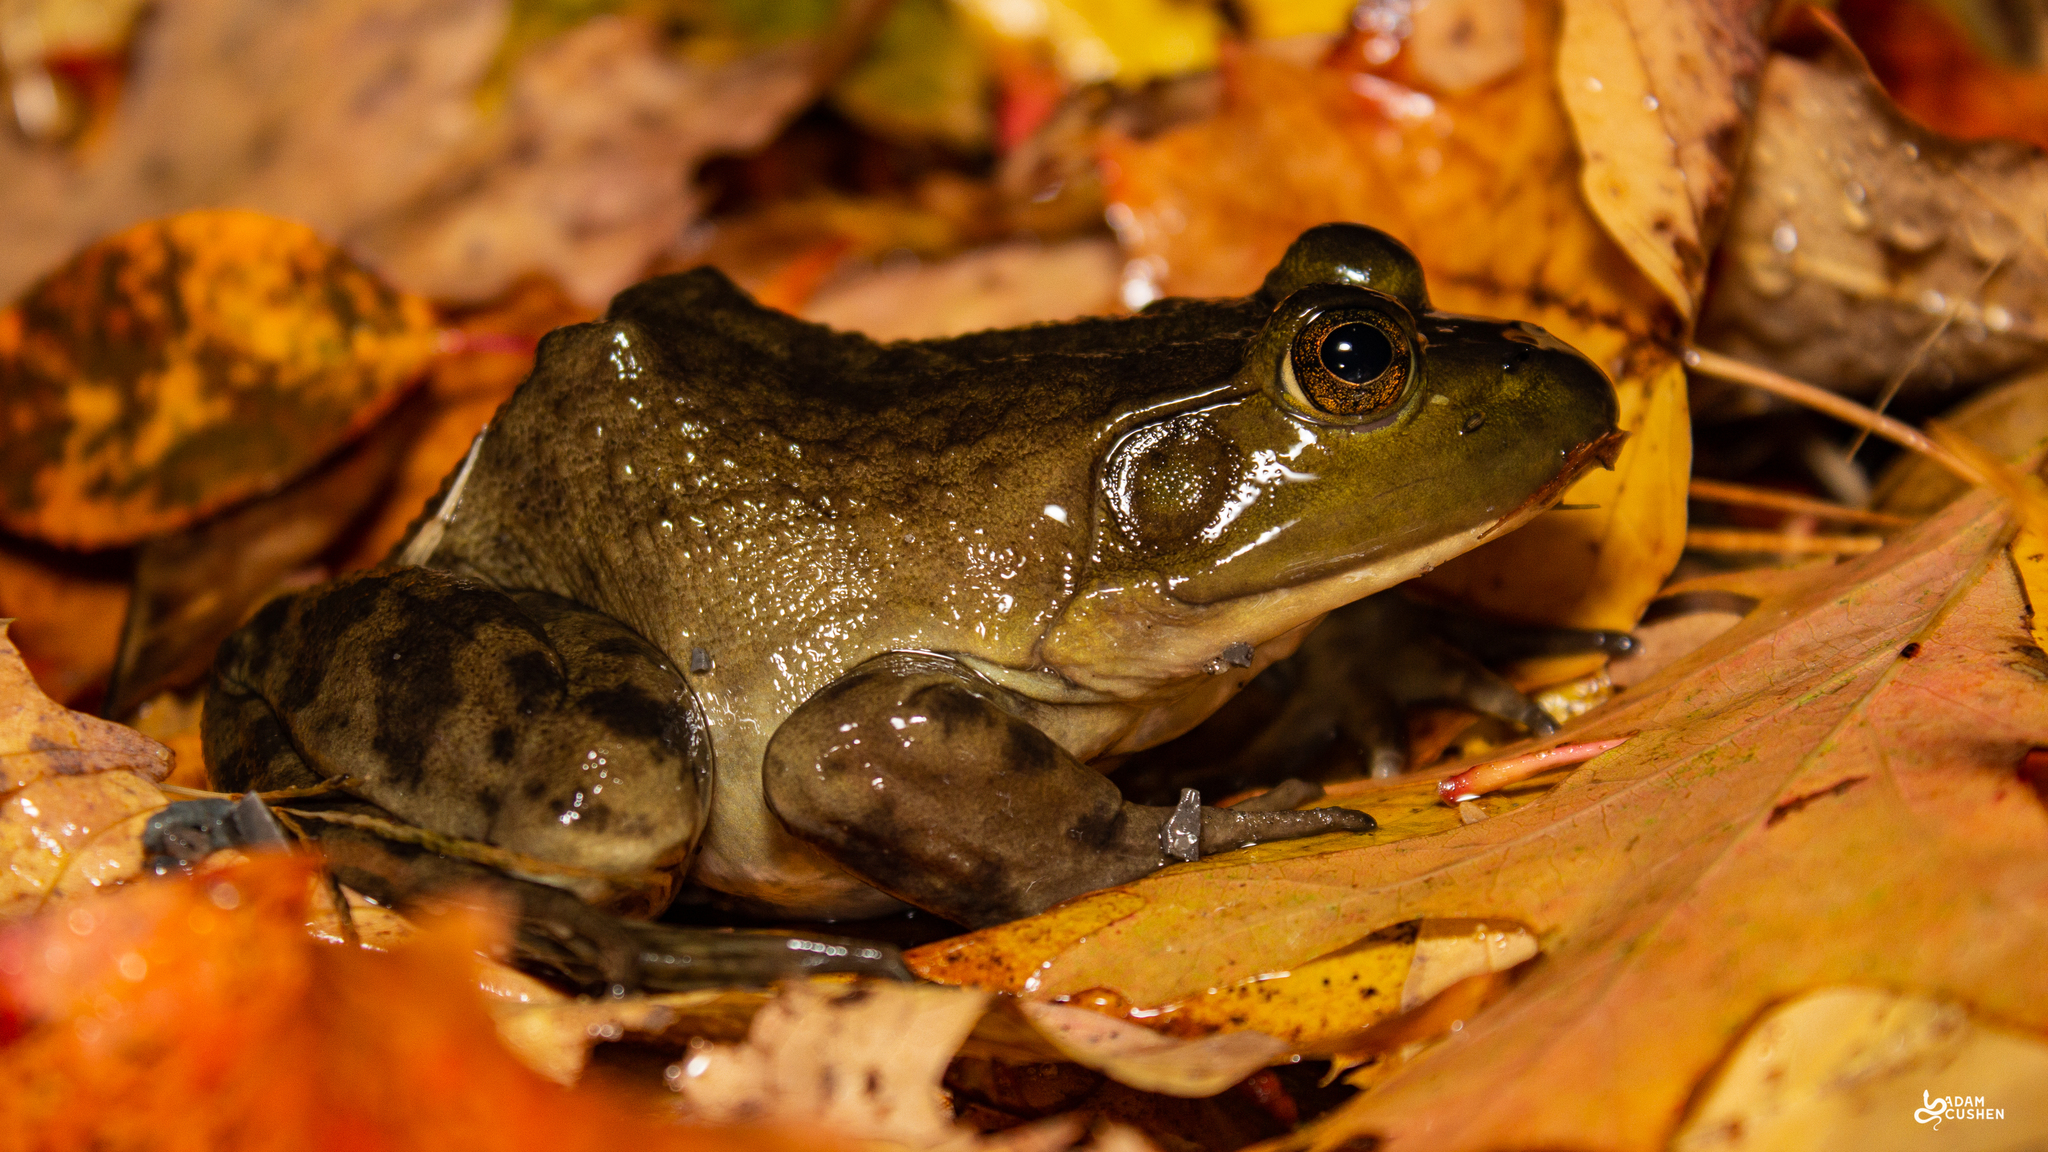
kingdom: Animalia
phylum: Chordata
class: Amphibia
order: Anura
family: Ranidae
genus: Lithobates
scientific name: Lithobates catesbeianus
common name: American bullfrog
